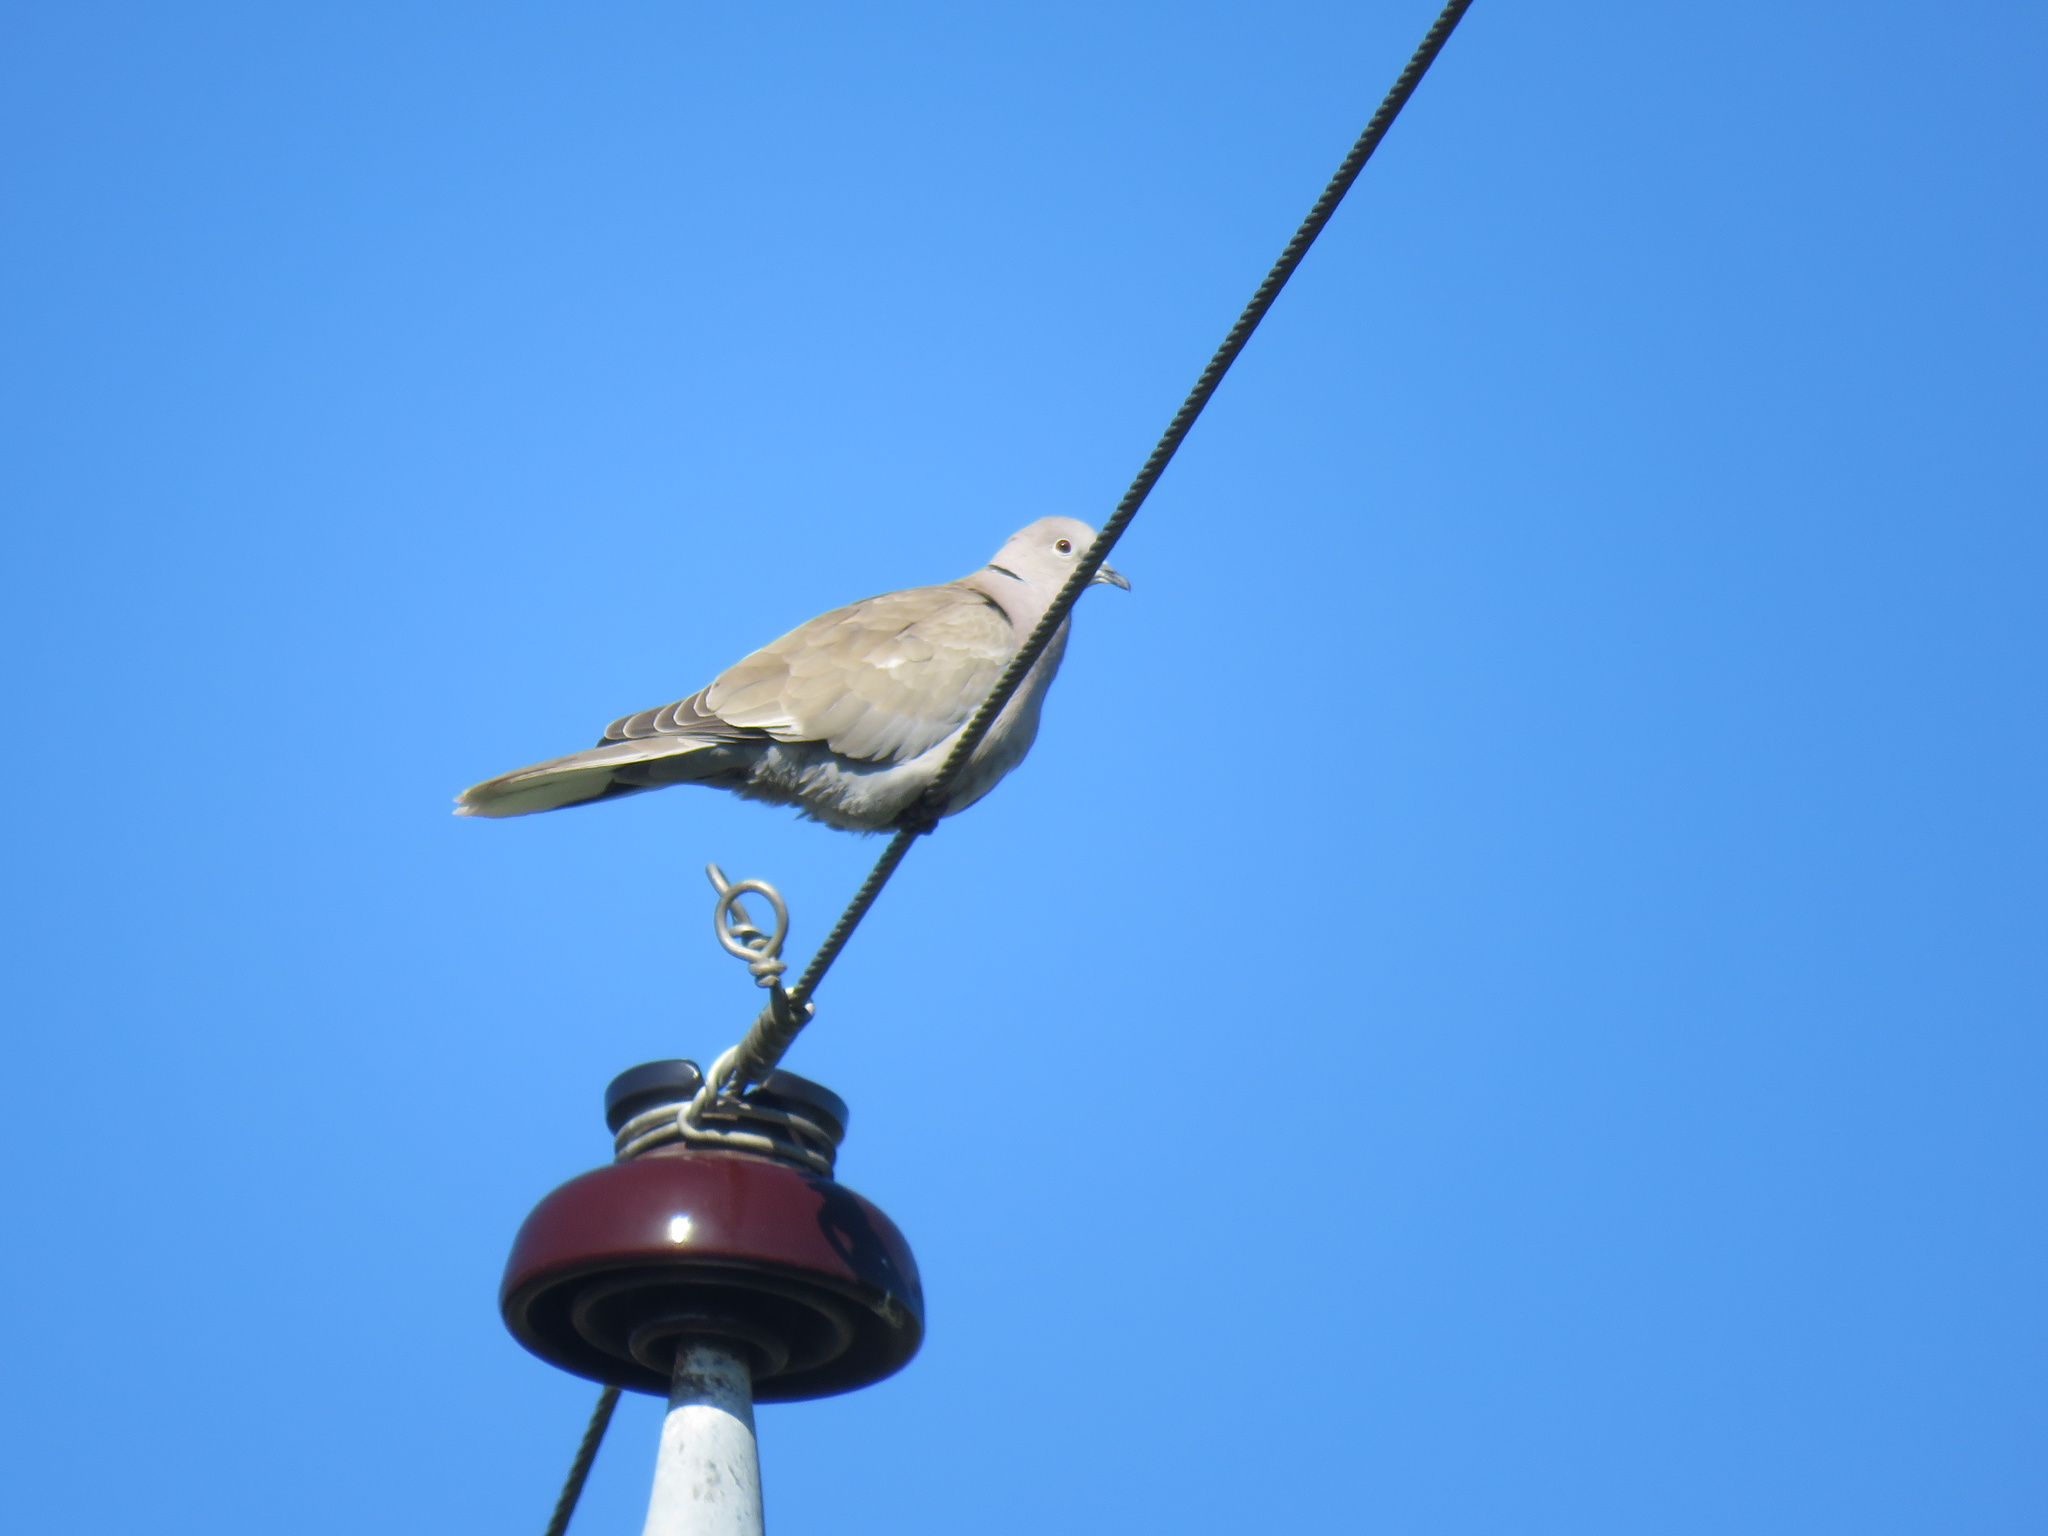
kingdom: Animalia
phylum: Chordata
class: Aves
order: Columbiformes
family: Columbidae
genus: Streptopelia
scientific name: Streptopelia decaocto
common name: Eurasian collared dove
